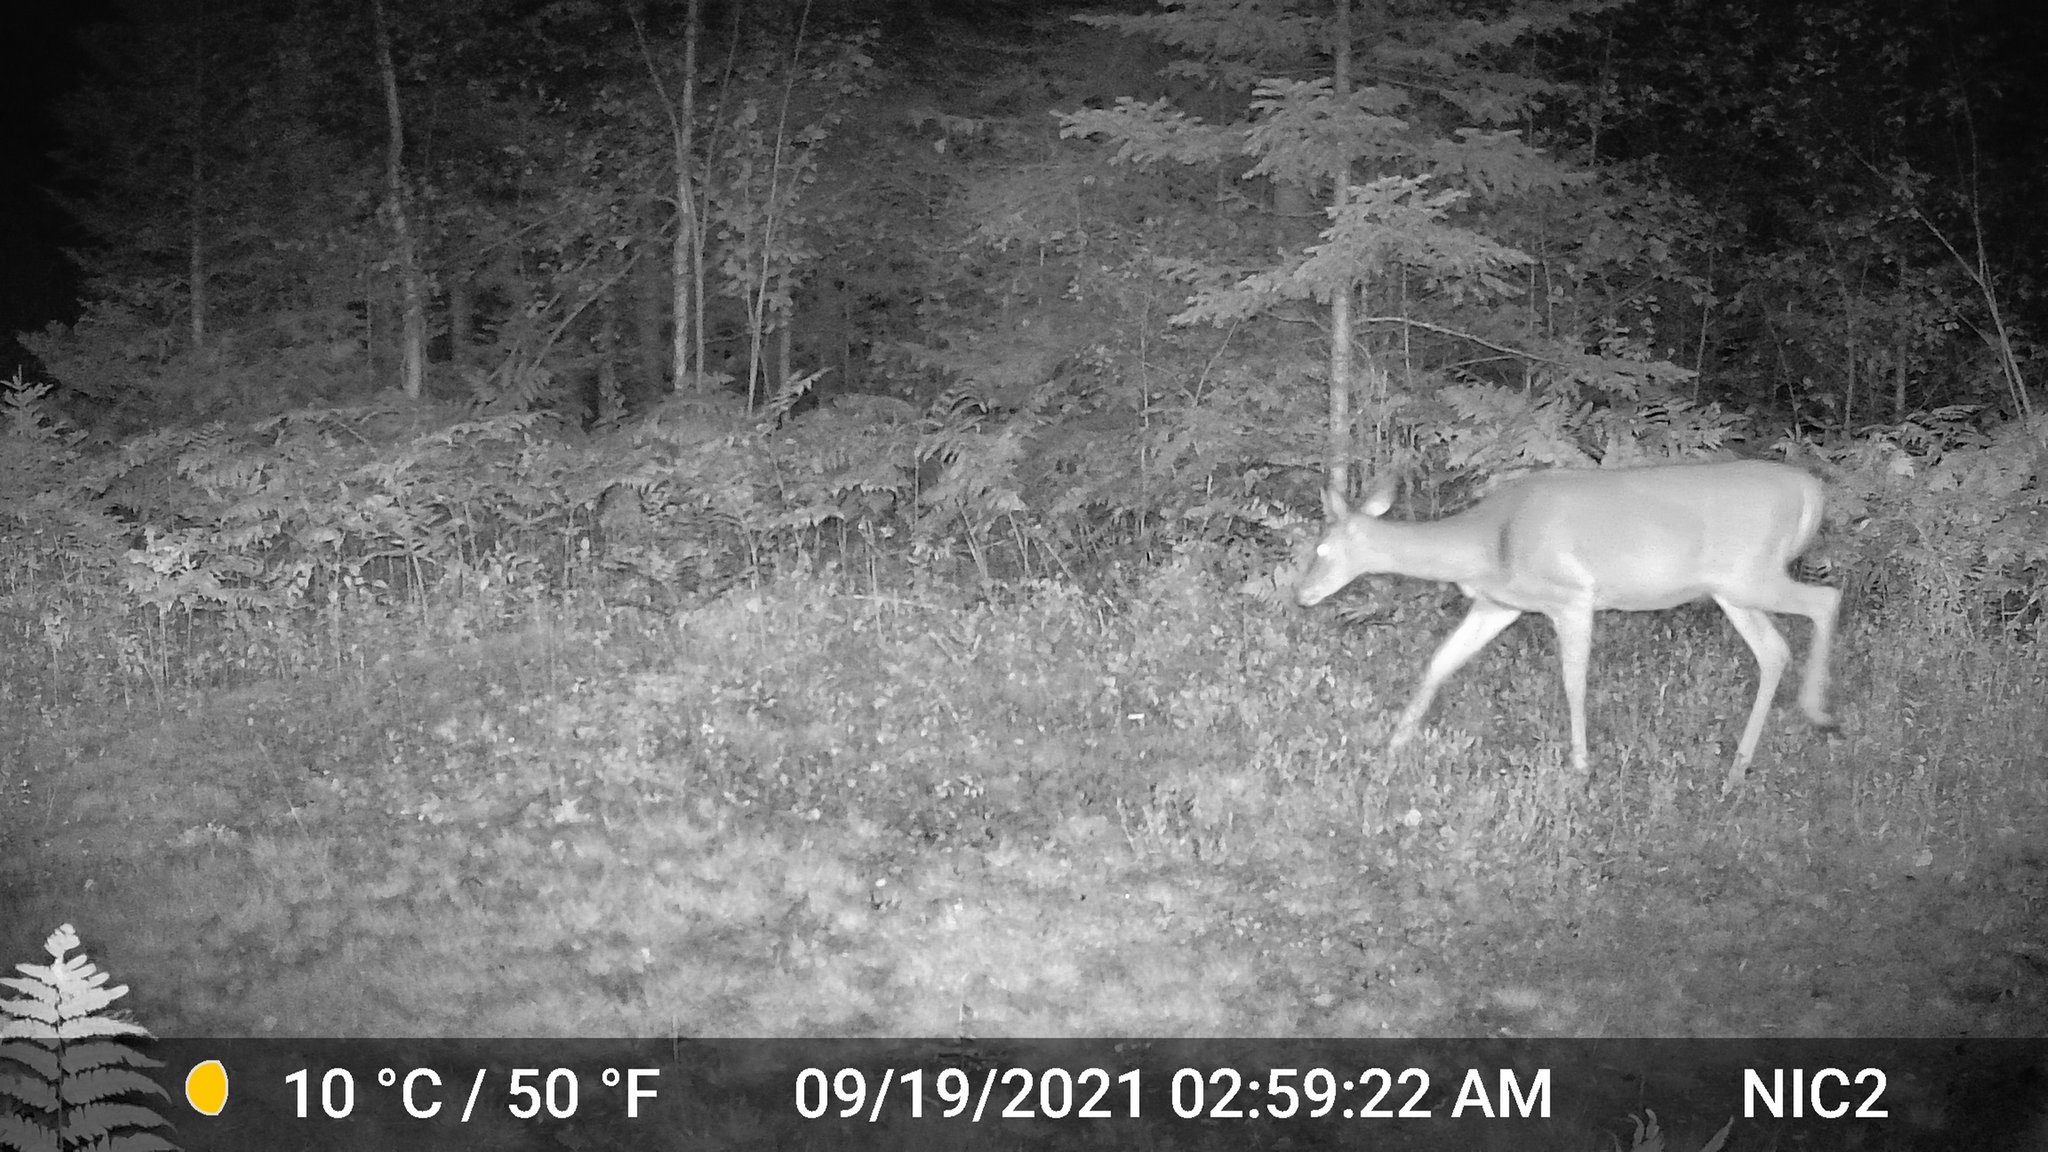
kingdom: Animalia
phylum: Chordata
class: Mammalia
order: Artiodactyla
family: Cervidae
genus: Odocoileus
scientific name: Odocoileus virginianus
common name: White-tailed deer
